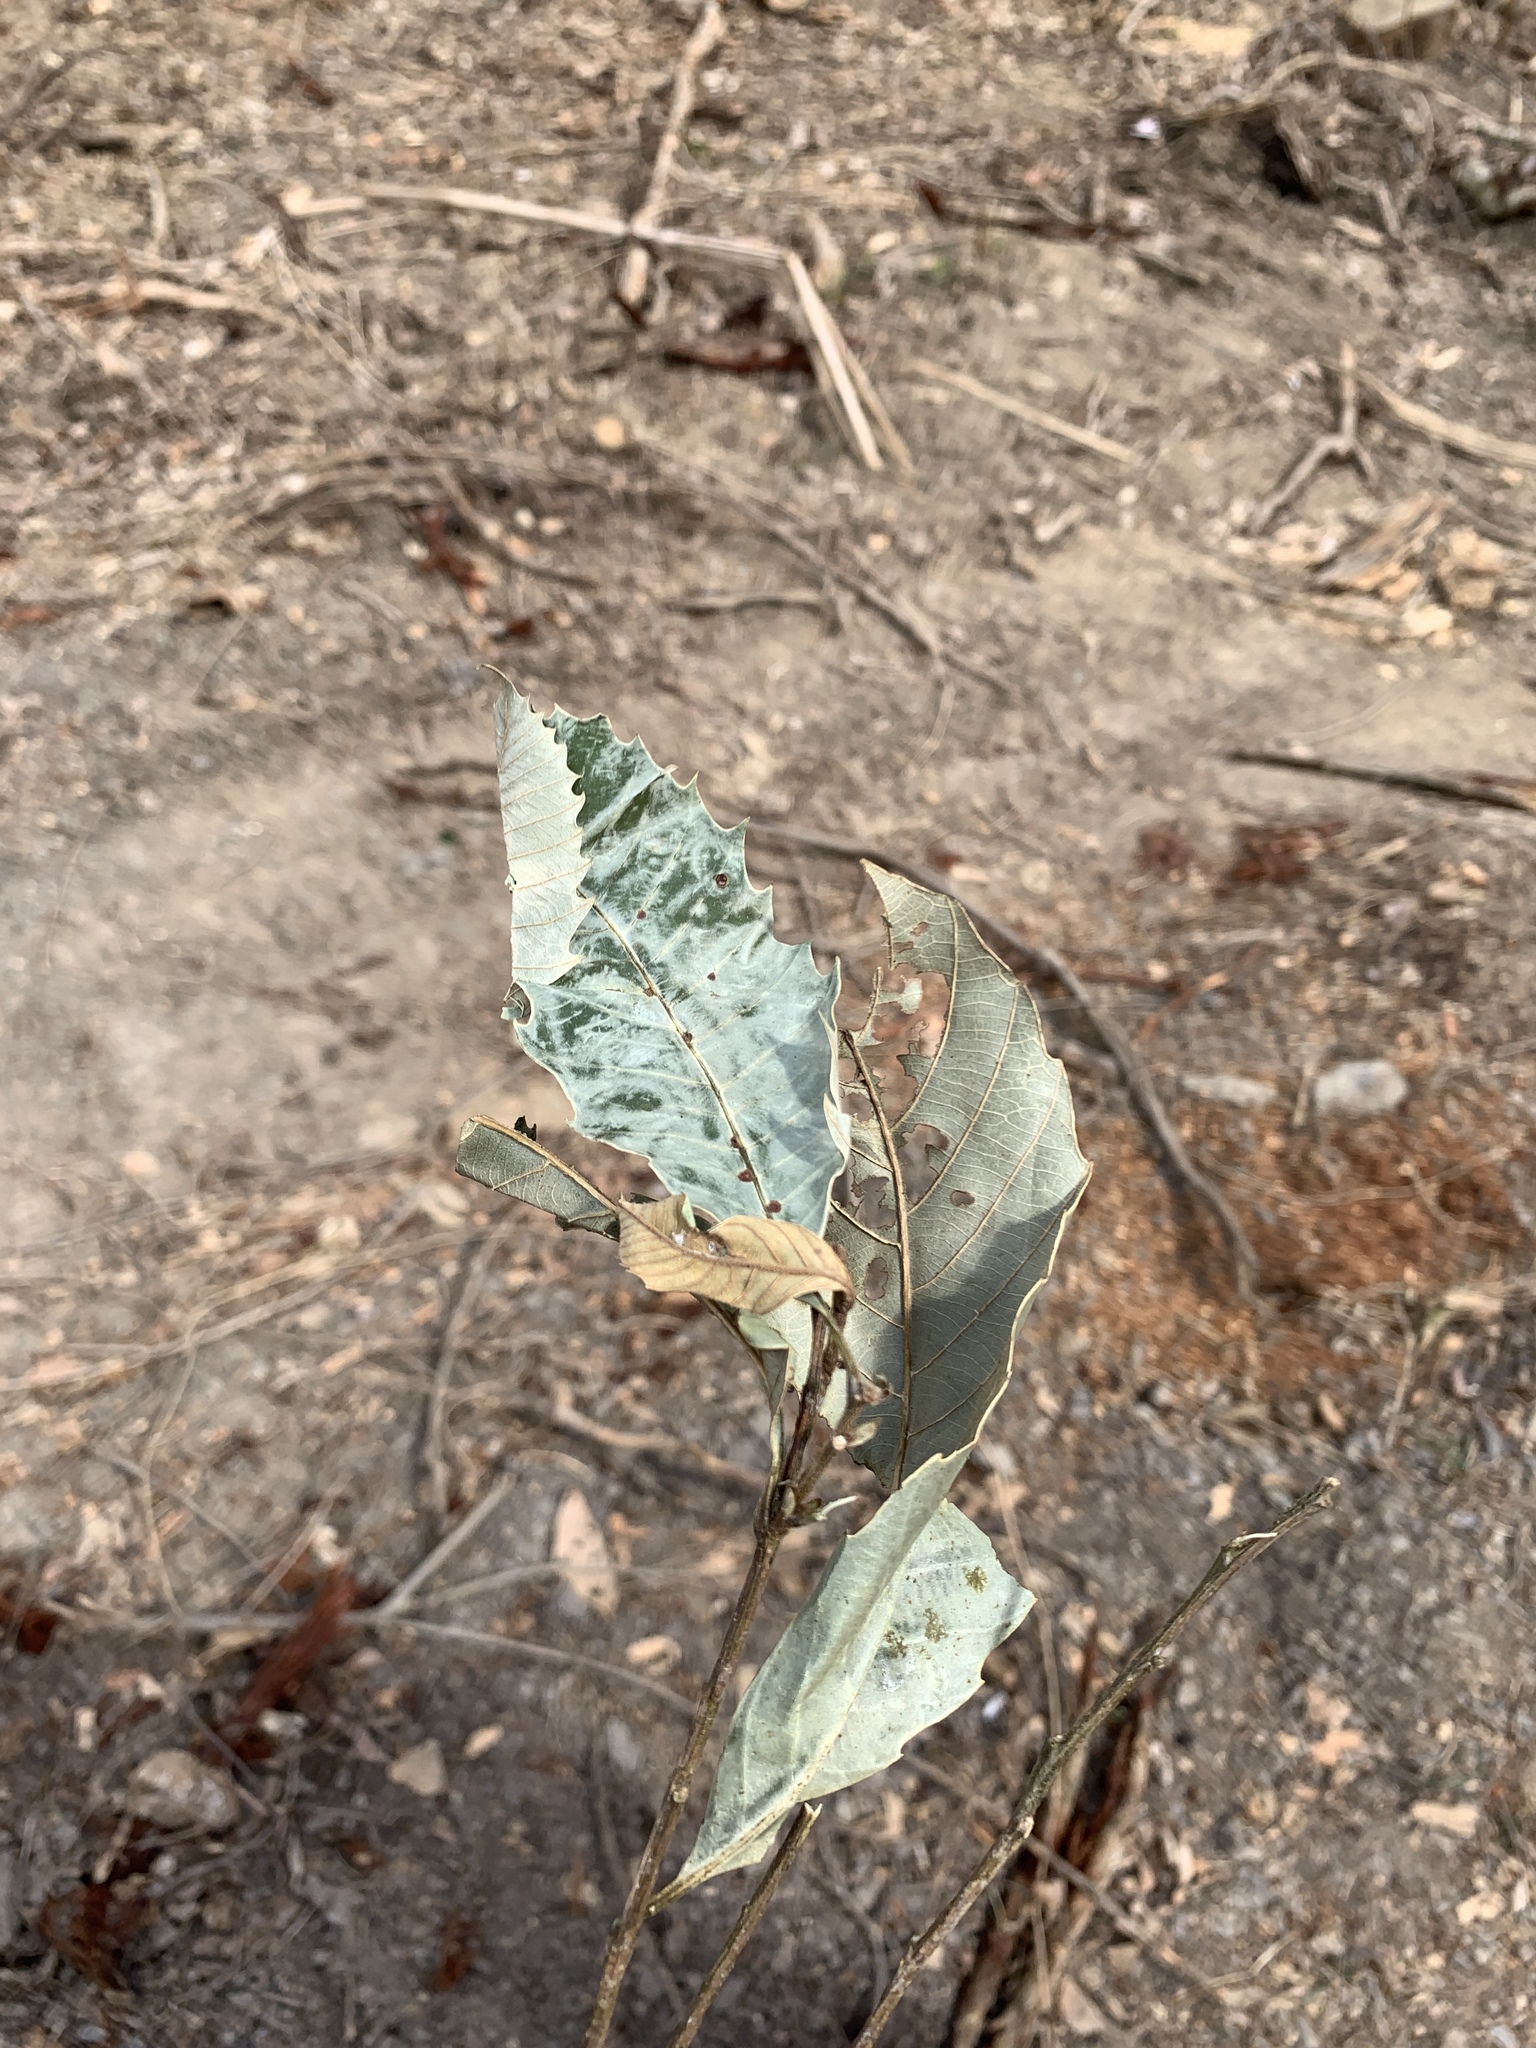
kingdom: Plantae
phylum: Tracheophyta
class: Magnoliopsida
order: Fagales
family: Fagaceae
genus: Castanopsis
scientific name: Castanopsis indica
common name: Indian-chestnut
